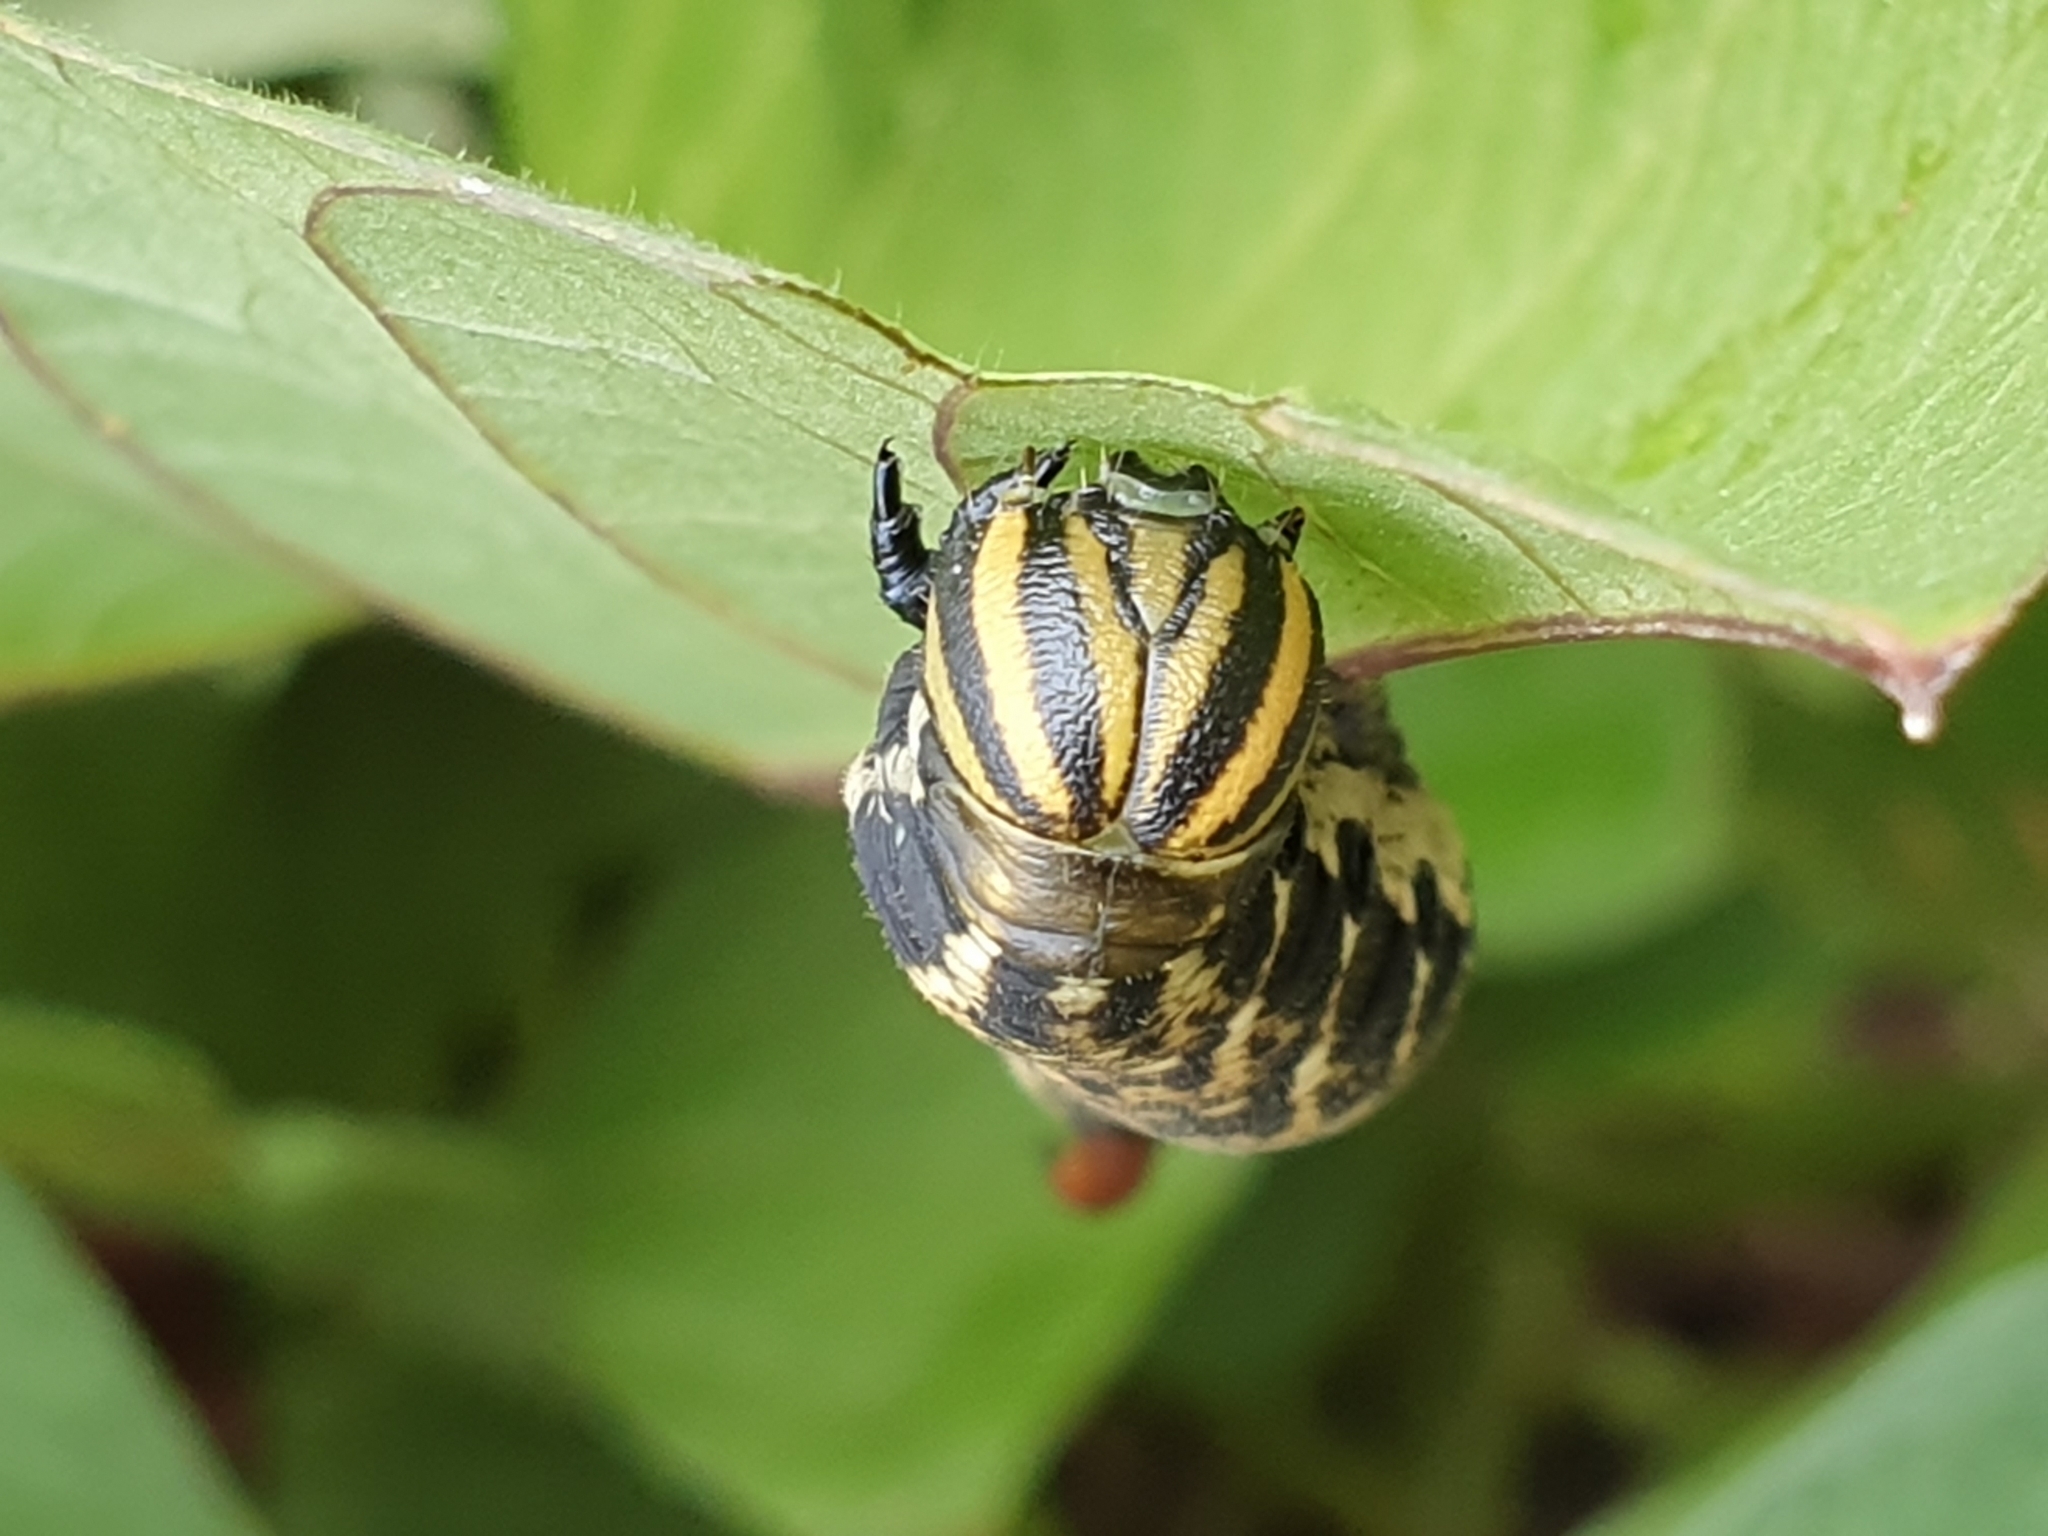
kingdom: Animalia
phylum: Arthropoda
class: Insecta
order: Lepidoptera
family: Sphingidae
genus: Agrius
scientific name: Agrius convolvuli
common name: Convolvulus hawkmoth
